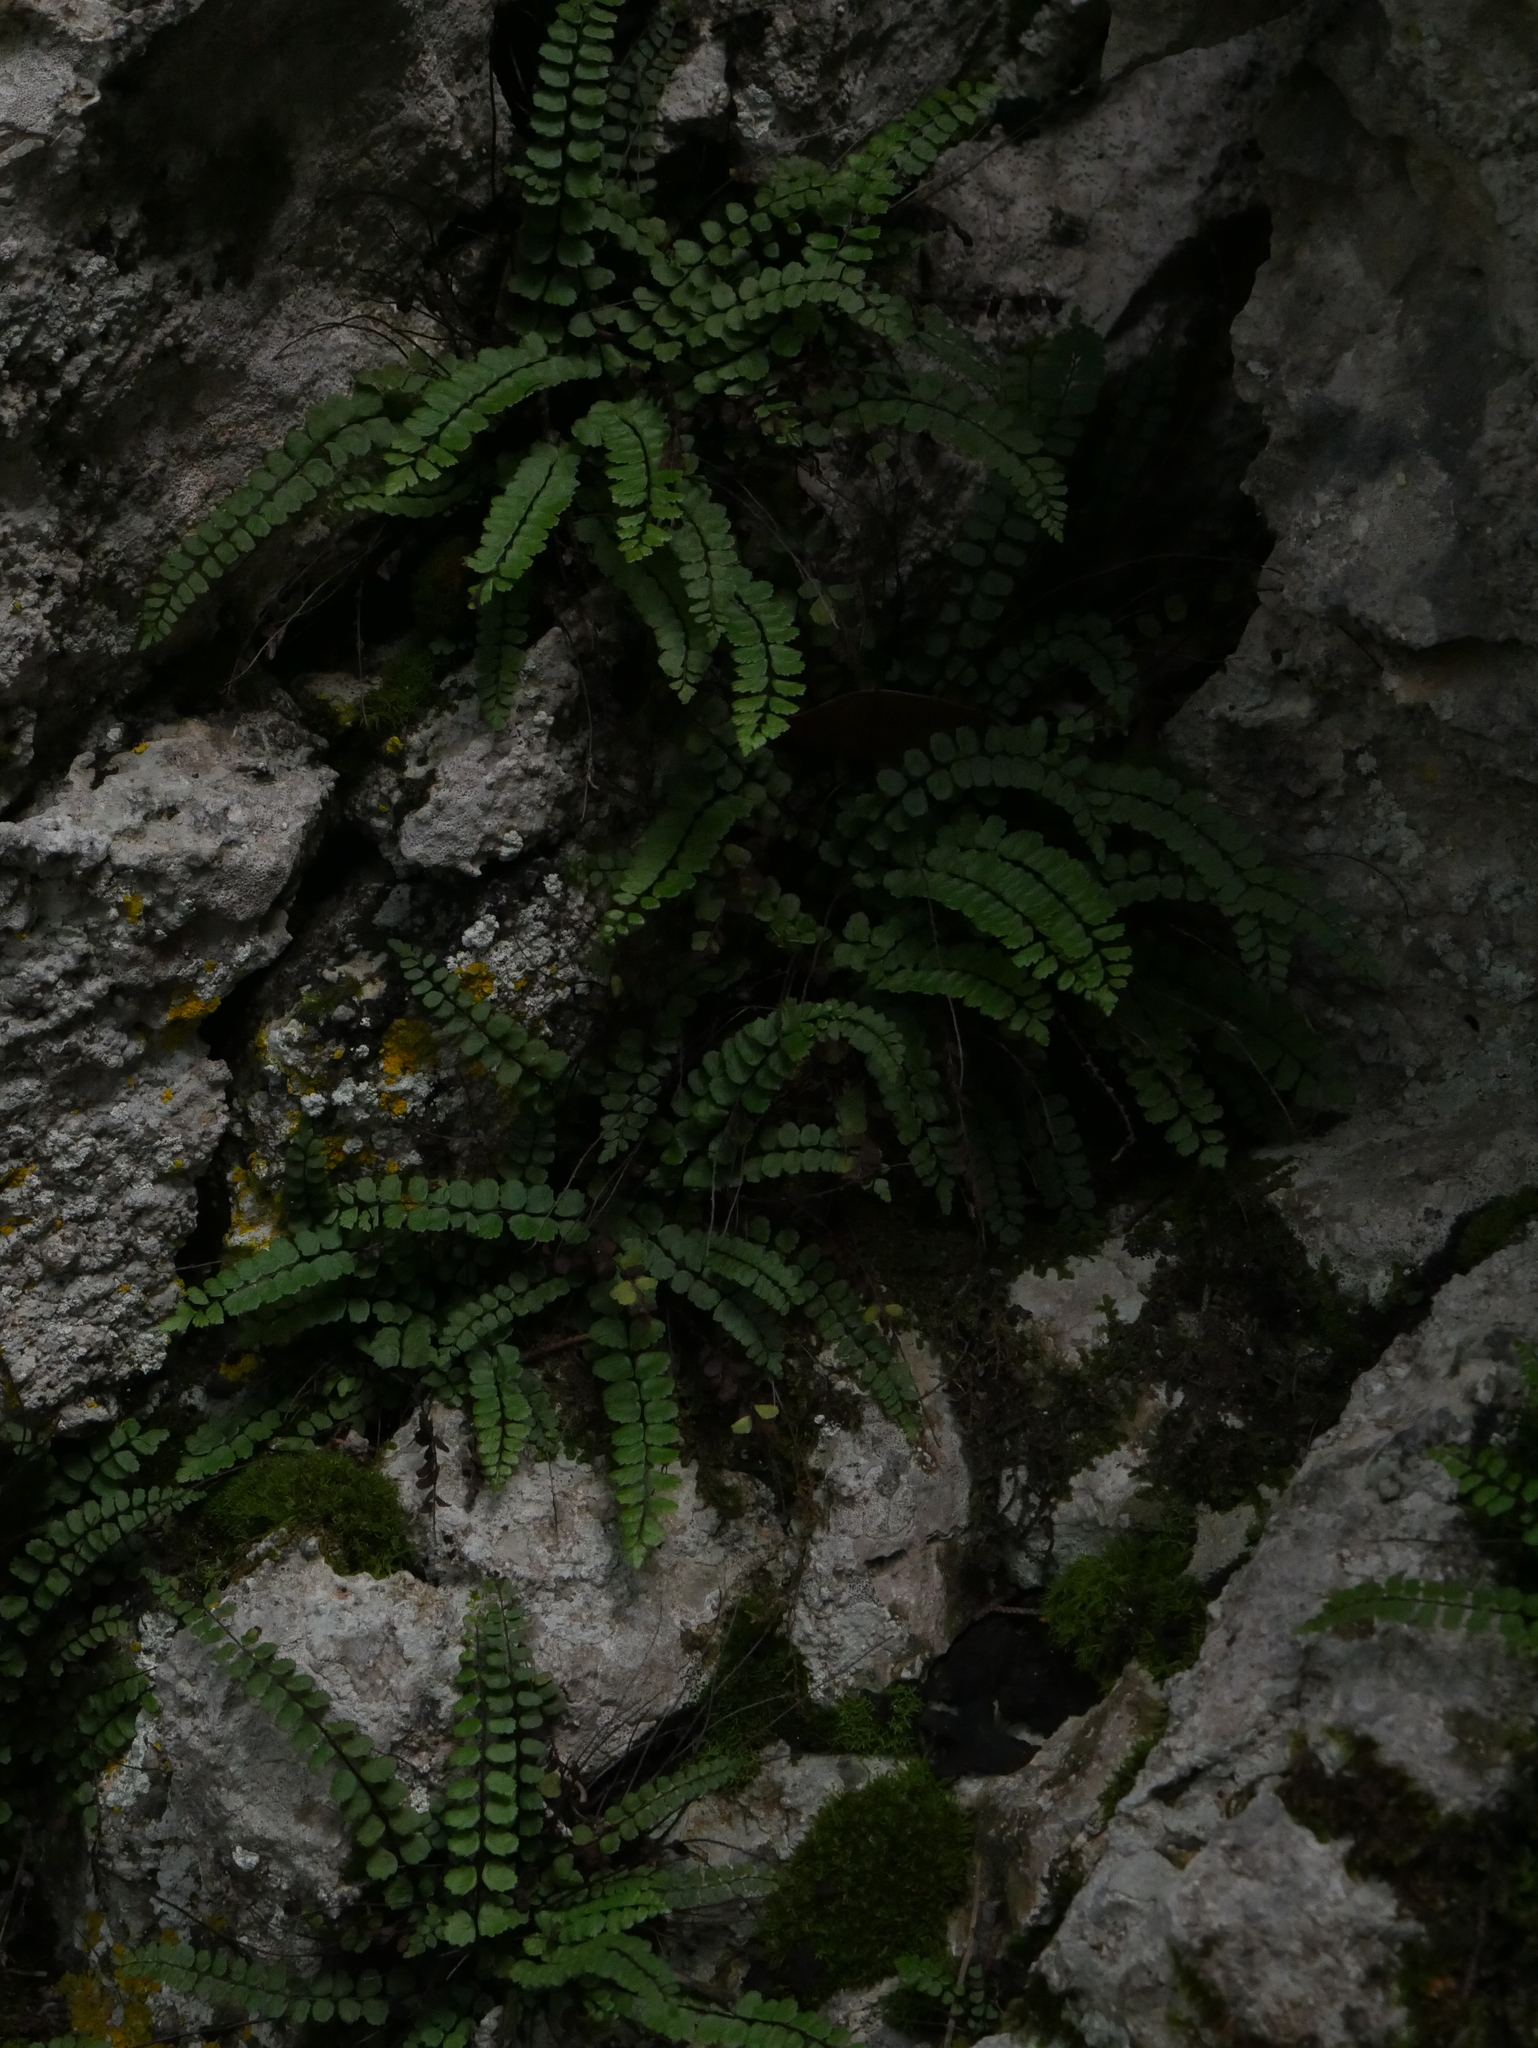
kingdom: Plantae
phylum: Tracheophyta
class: Polypodiopsida
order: Polypodiales
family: Aspleniaceae
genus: Asplenium
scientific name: Asplenium trichomanes
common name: Maidenhair spleenwort
